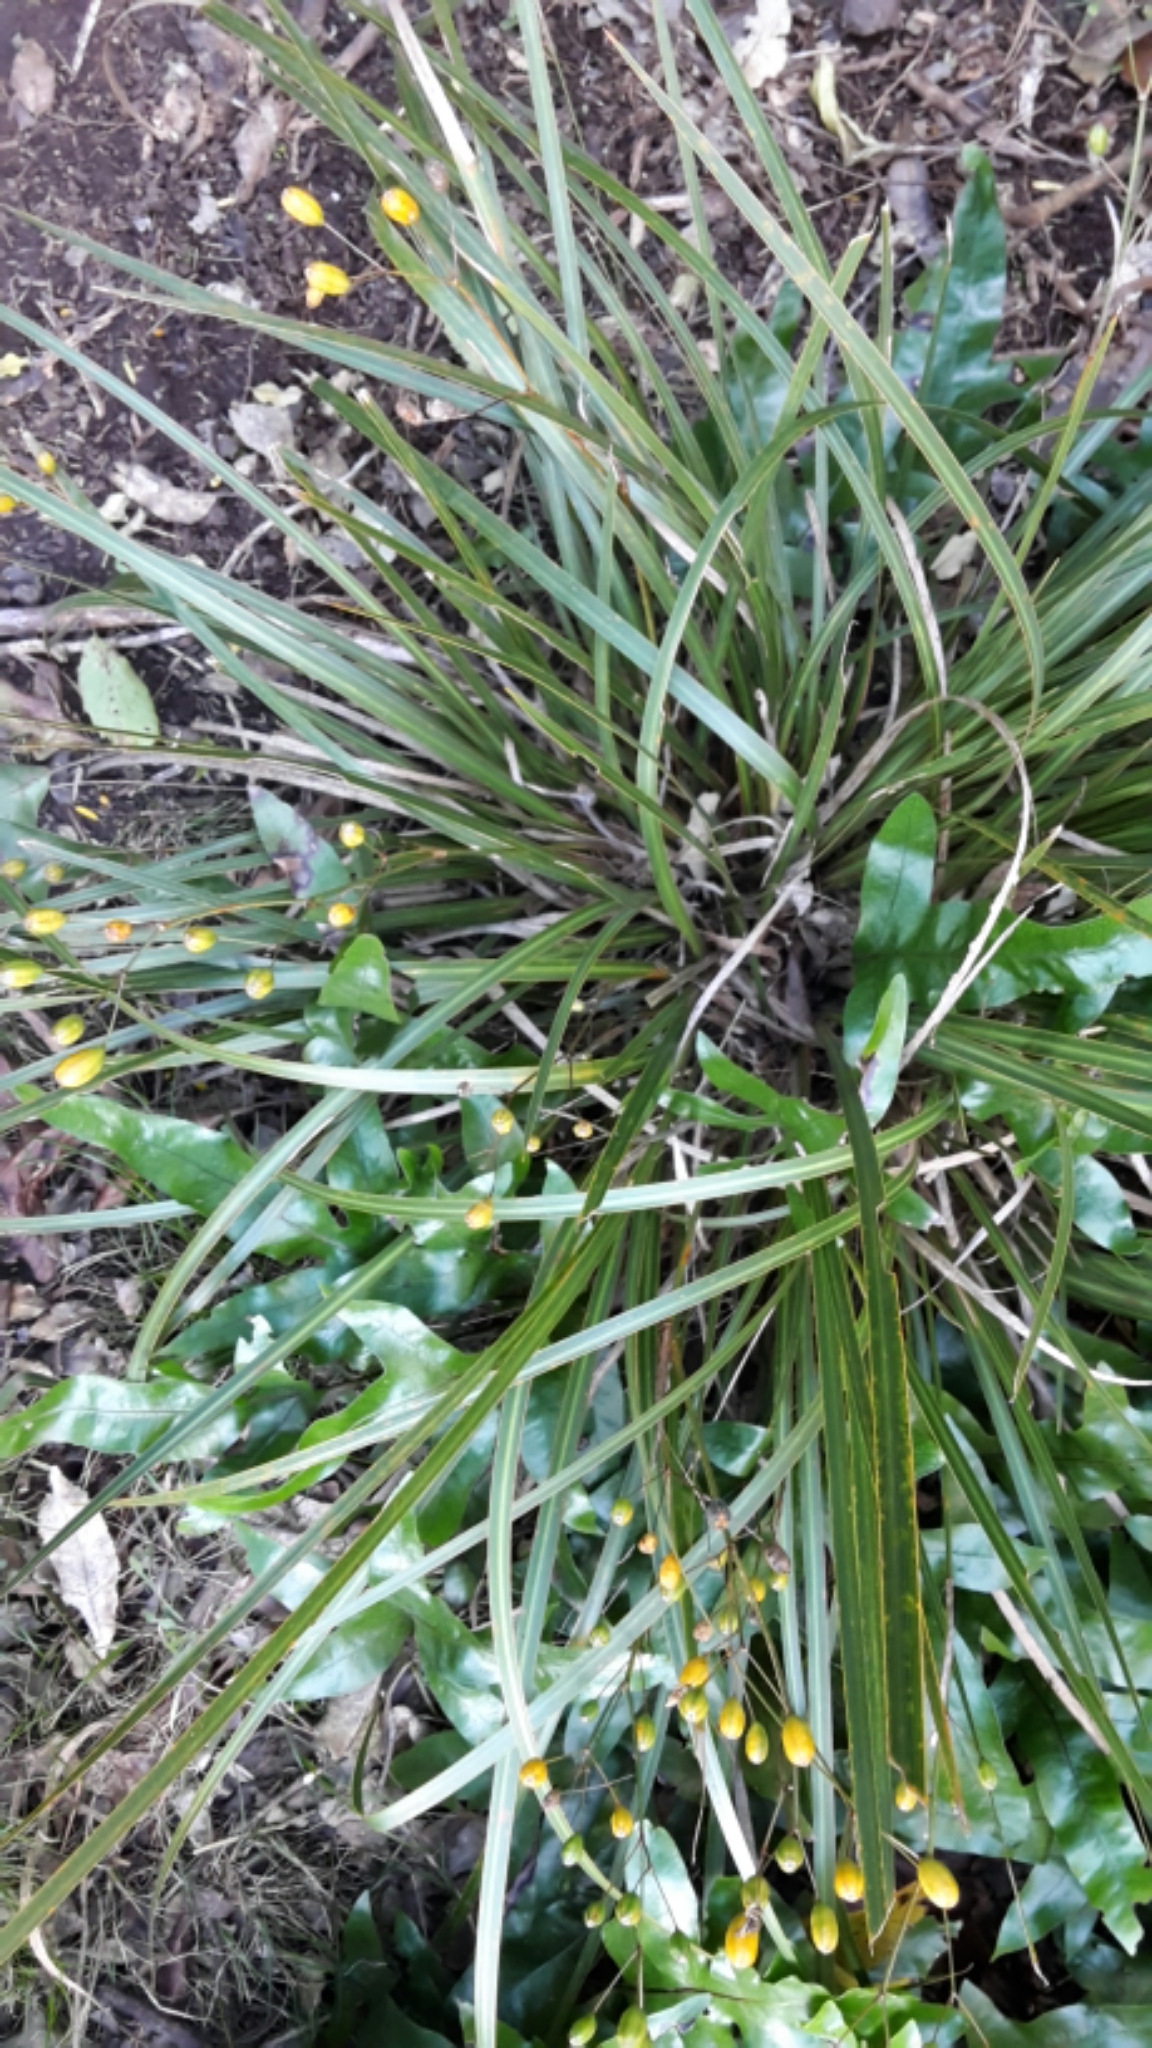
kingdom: Plantae
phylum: Tracheophyta
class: Liliopsida
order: Asparagales
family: Iridaceae
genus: Libertia
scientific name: Libertia ixioides
